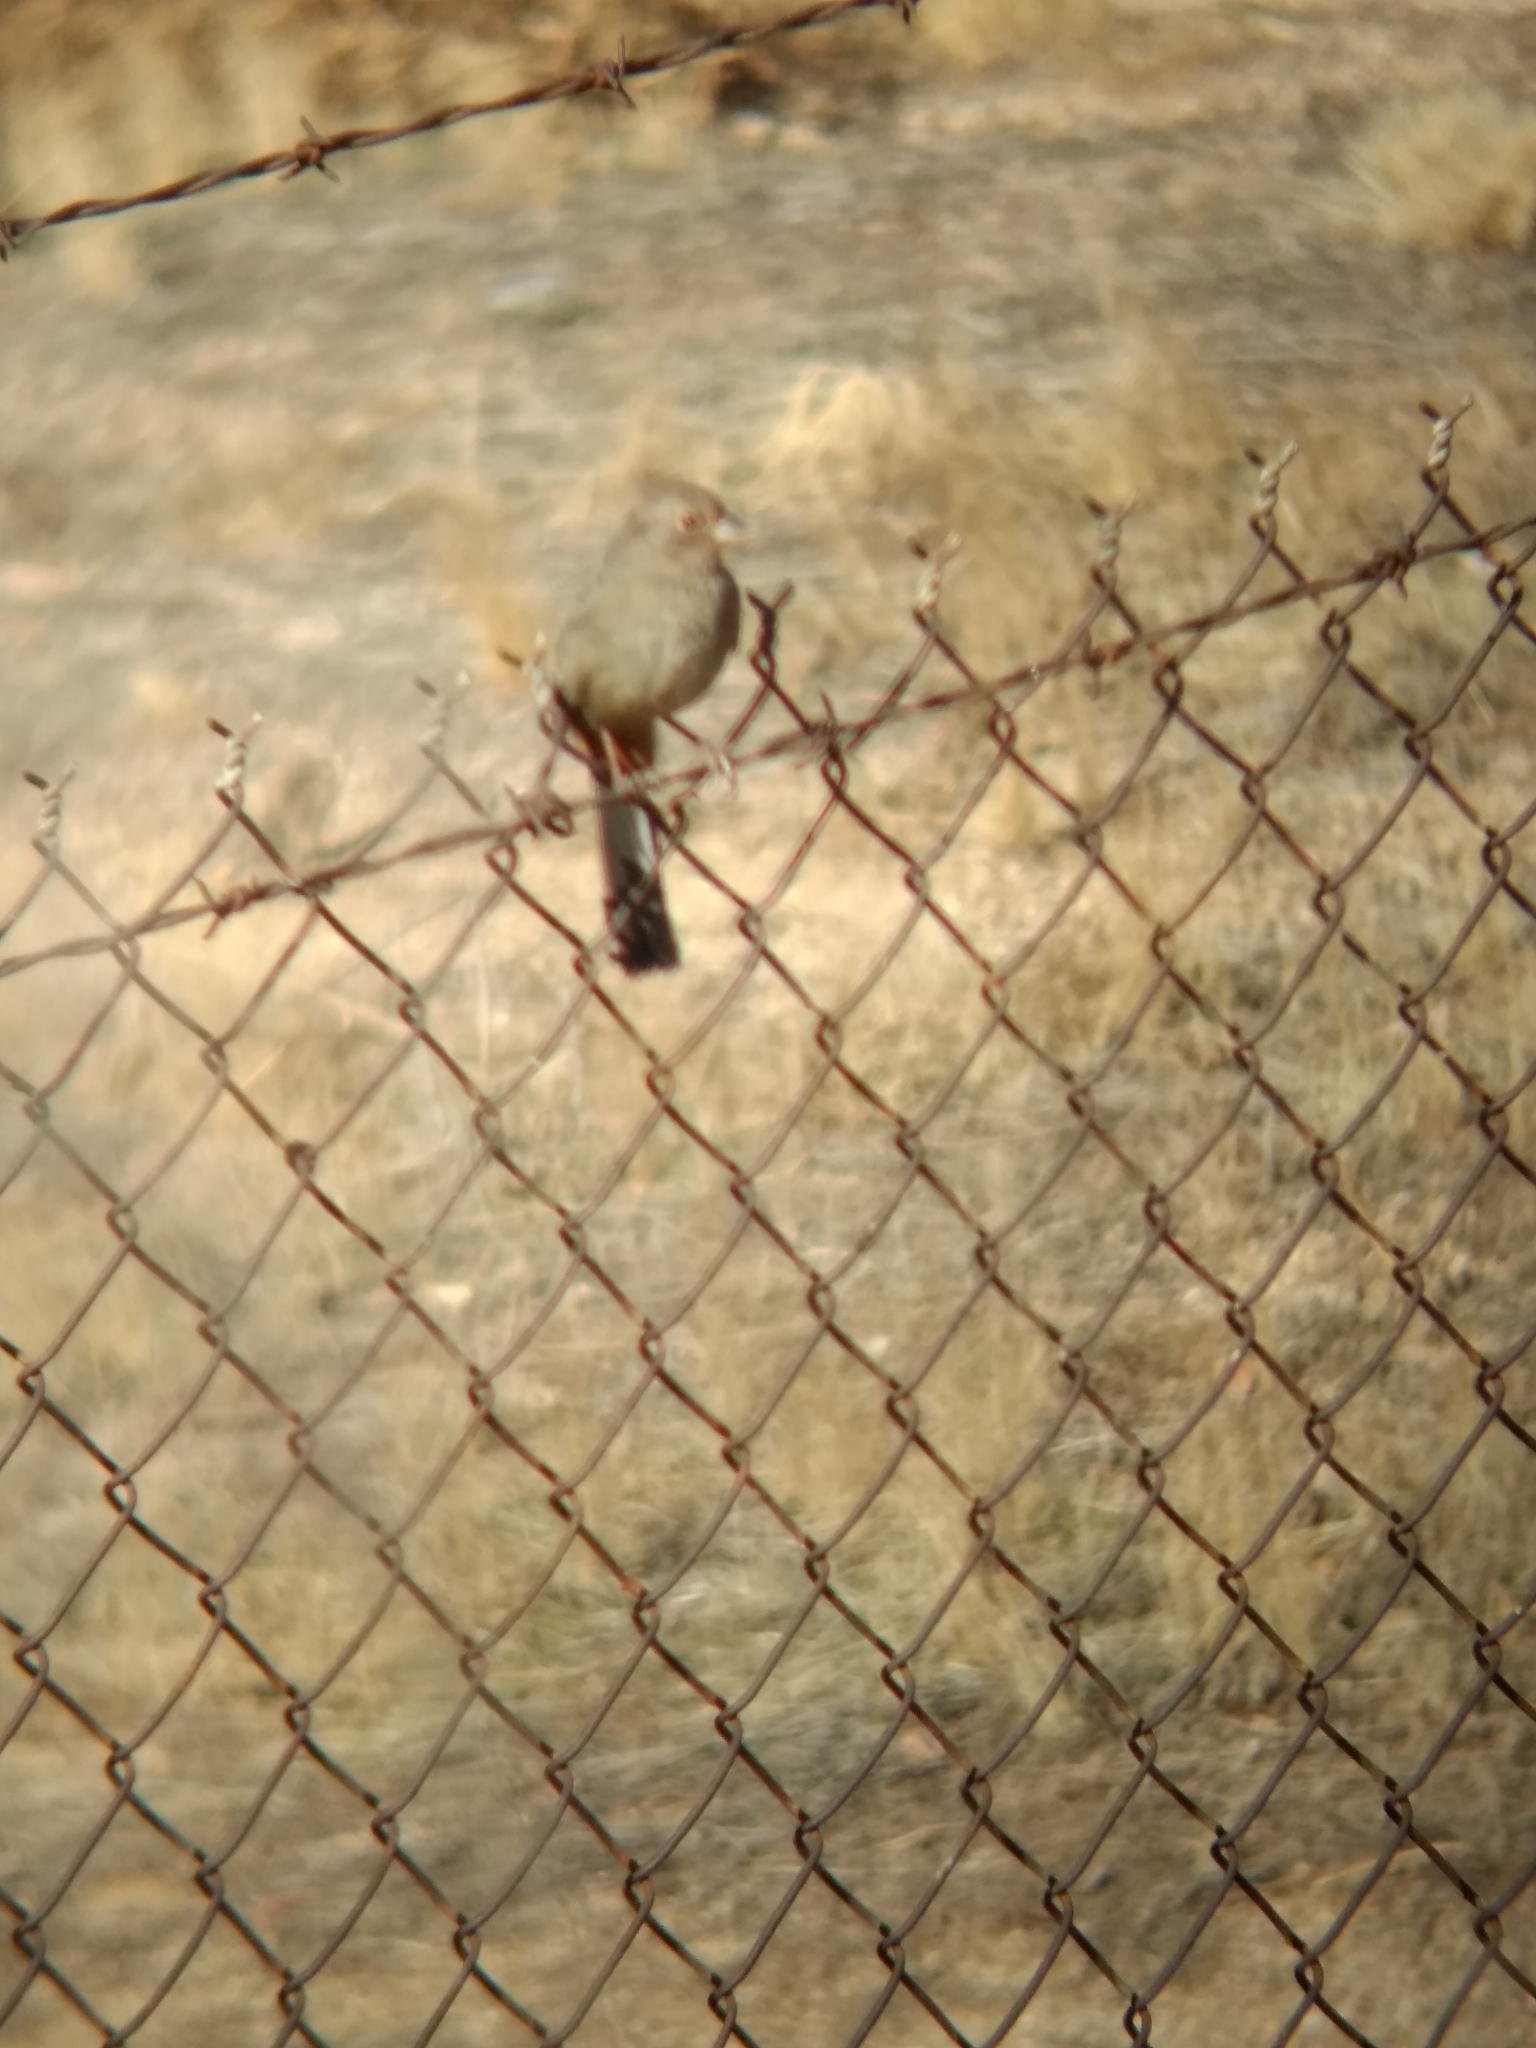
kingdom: Animalia
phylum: Chordata
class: Aves
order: Passeriformes
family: Passerellidae
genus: Melozone
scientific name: Melozone crissalis
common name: California towhee
